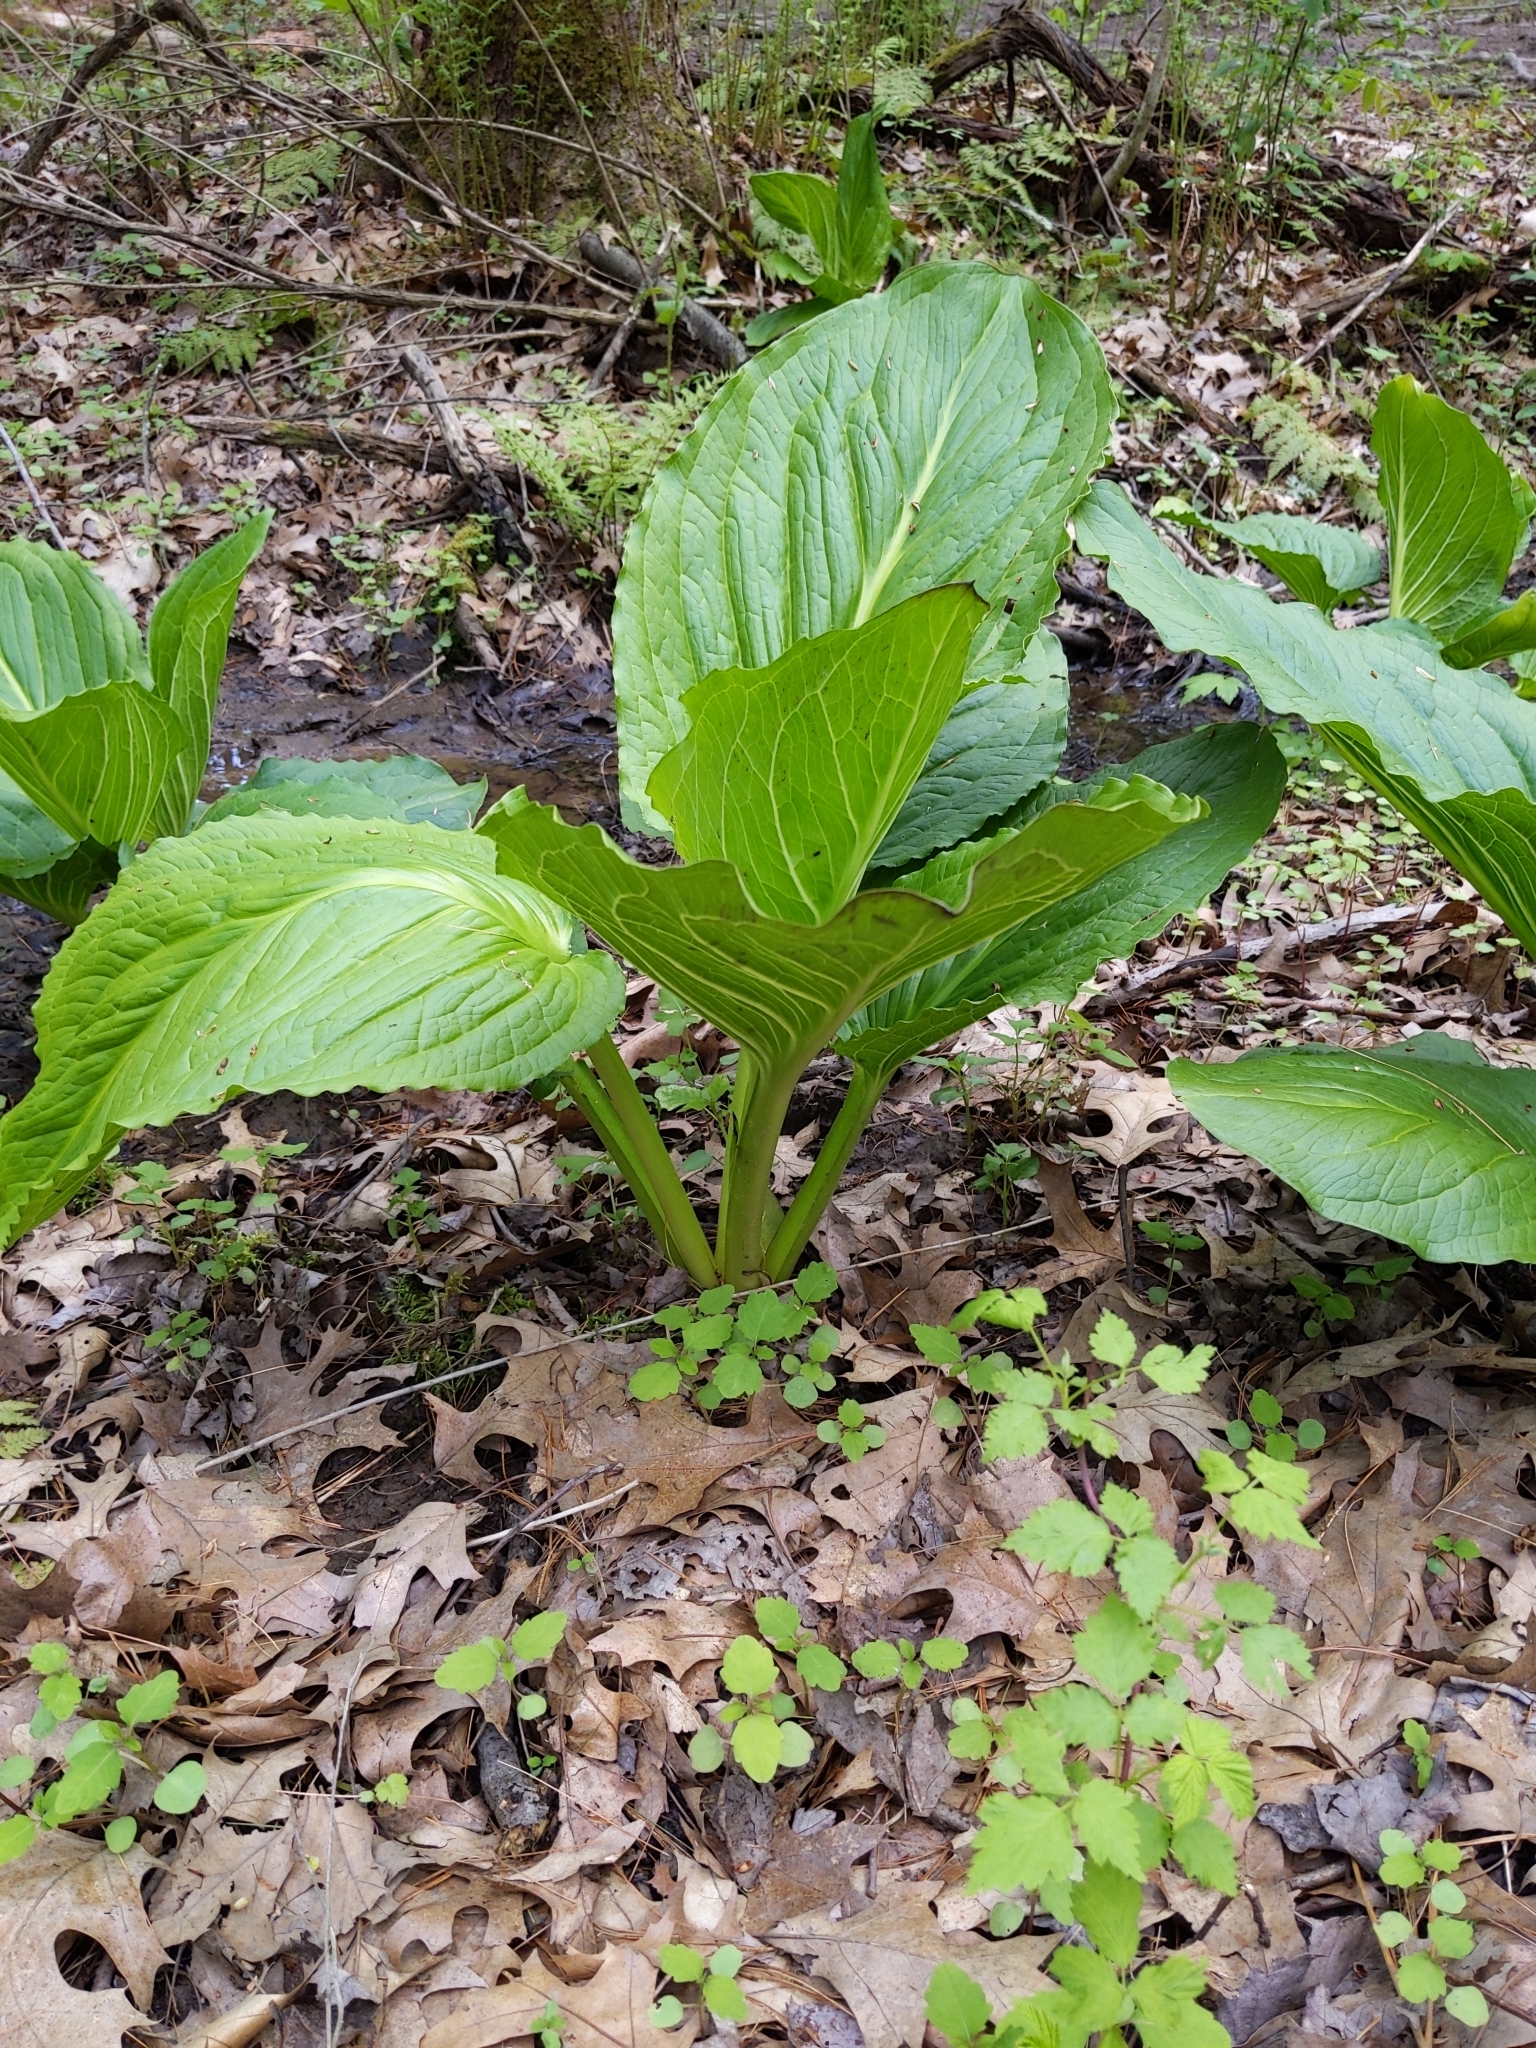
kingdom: Plantae
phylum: Tracheophyta
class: Liliopsida
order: Alismatales
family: Araceae
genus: Symplocarpus
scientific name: Symplocarpus foetidus
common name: Eastern skunk cabbage
